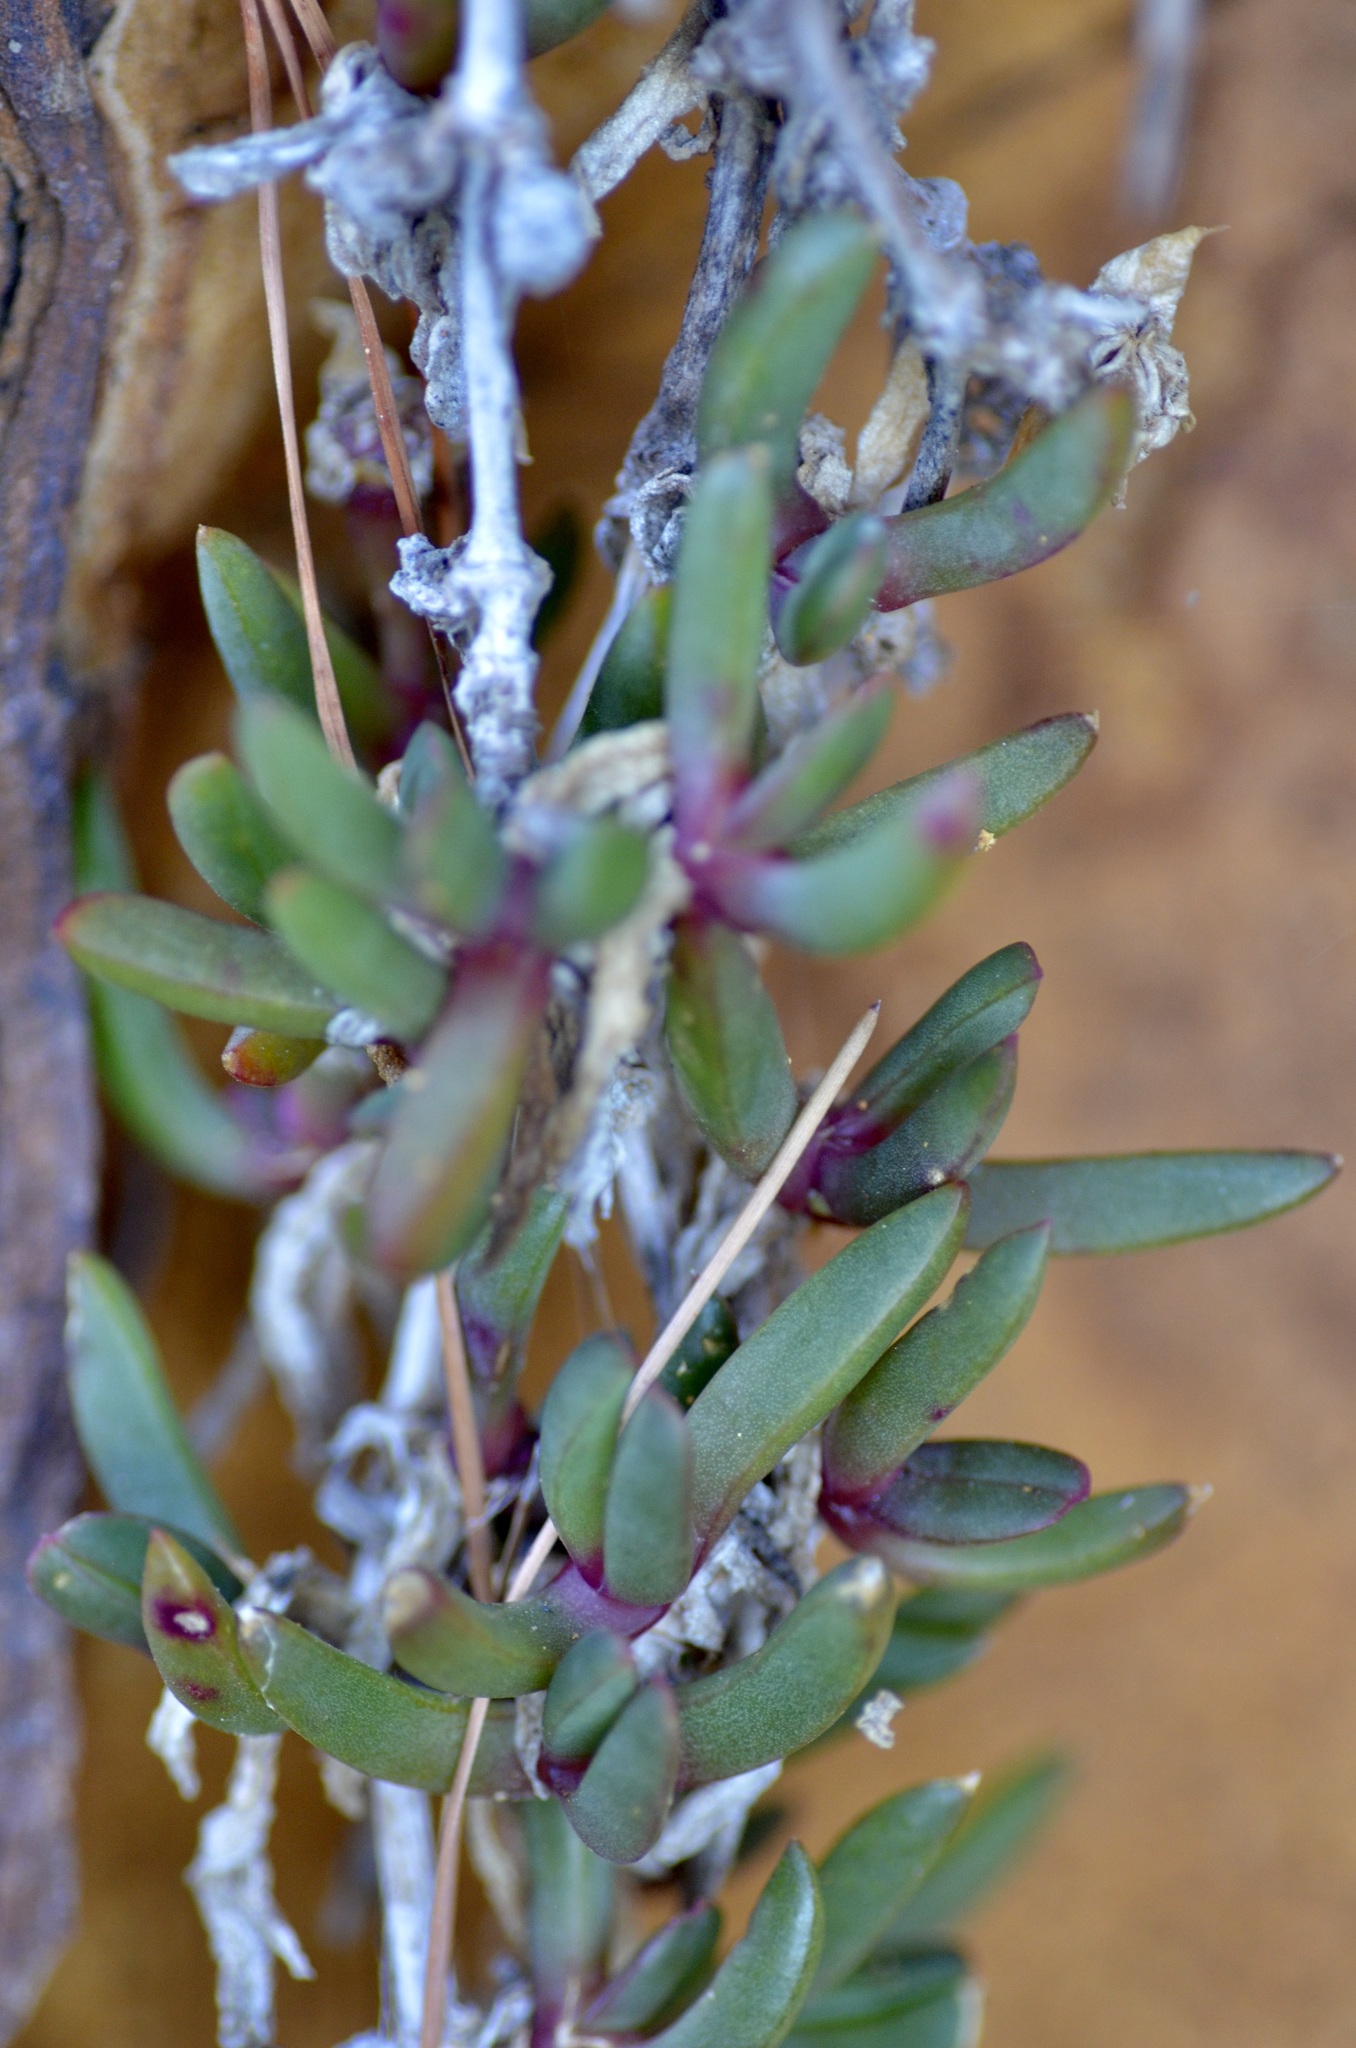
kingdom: Plantae
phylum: Tracheophyta
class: Magnoliopsida
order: Caryophyllales
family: Aizoaceae
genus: Disphyma
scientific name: Disphyma australe
